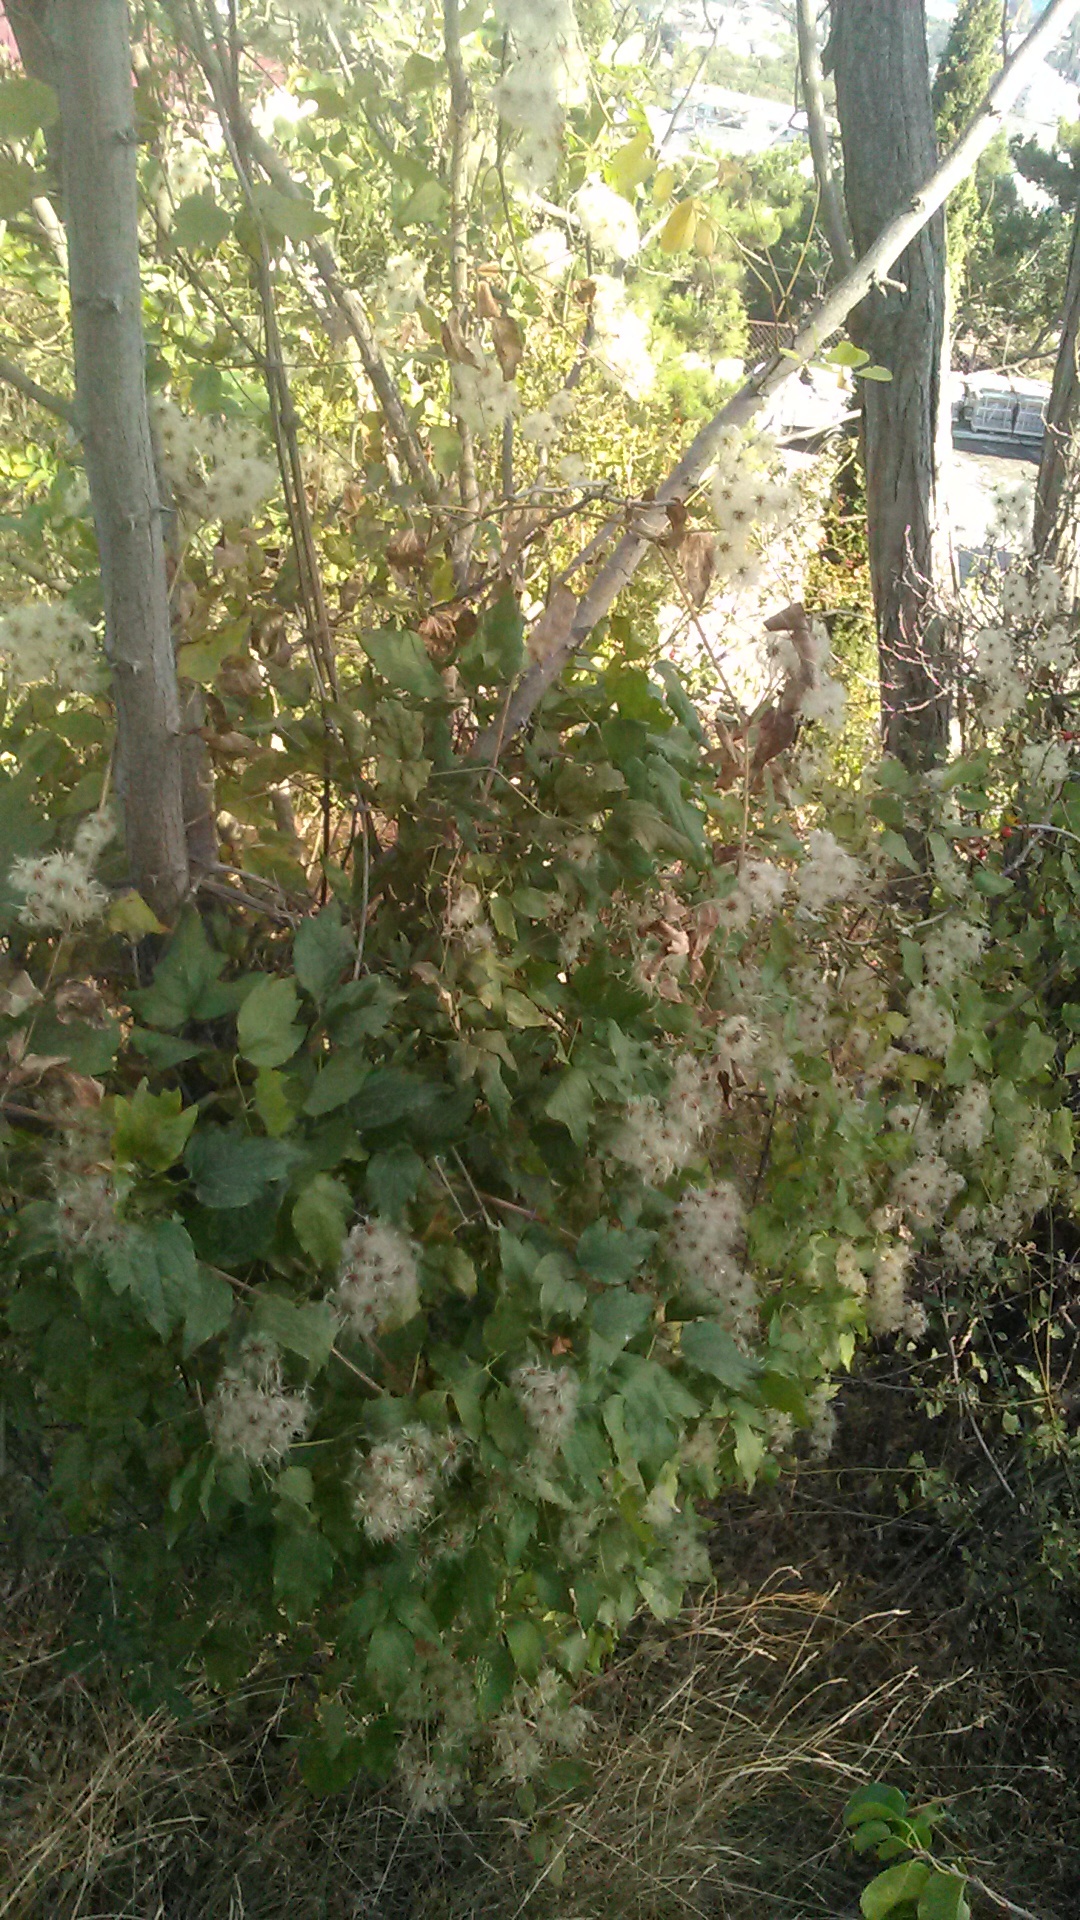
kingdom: Plantae
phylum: Tracheophyta
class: Magnoliopsida
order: Ranunculales
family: Ranunculaceae
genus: Clematis
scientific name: Clematis vitalba
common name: Evergreen clematis
